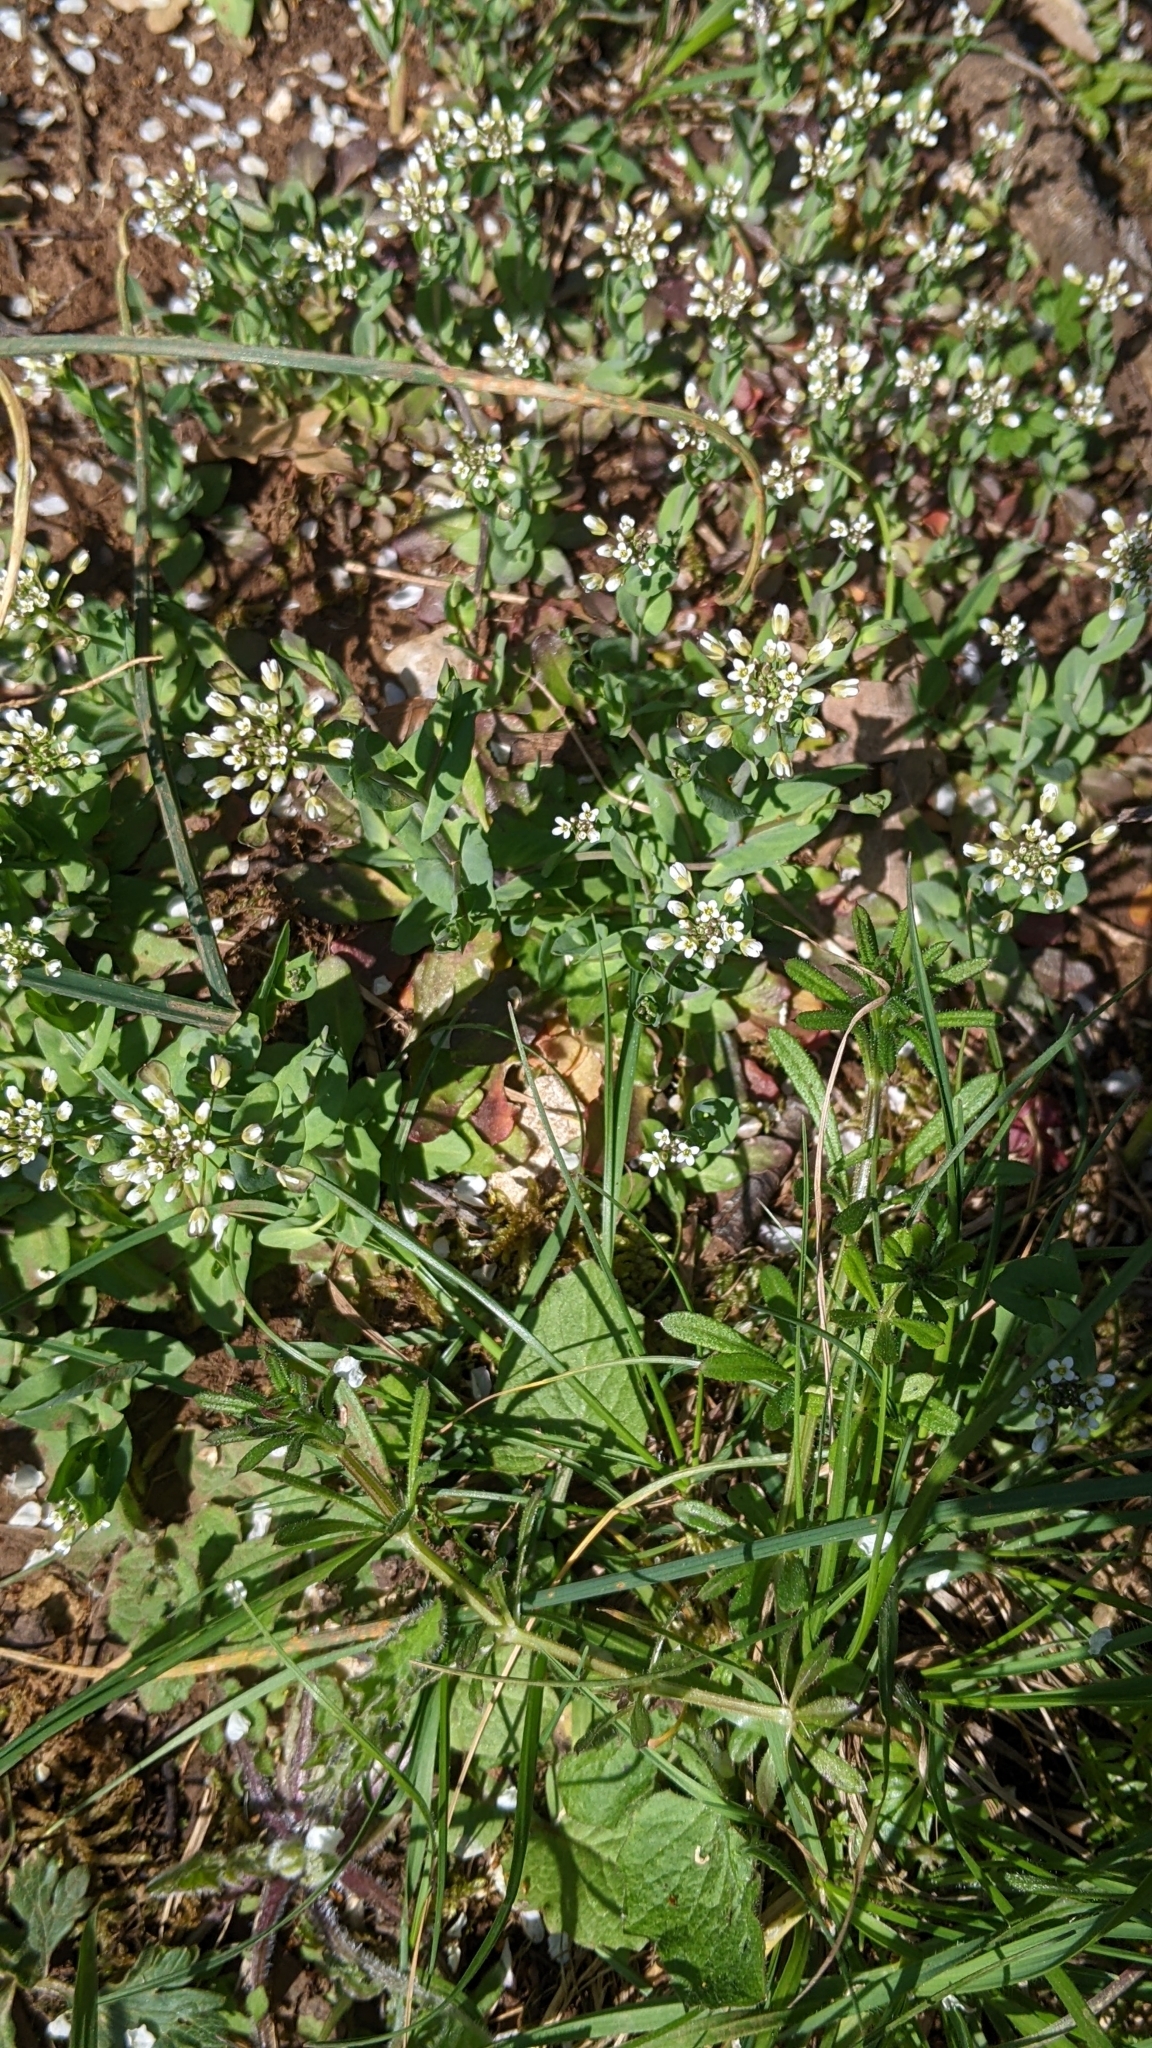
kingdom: Plantae
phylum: Tracheophyta
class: Magnoliopsida
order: Brassicales
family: Brassicaceae
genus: Noccaea
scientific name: Noccaea perfoliata
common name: Perfoliate pennycress
